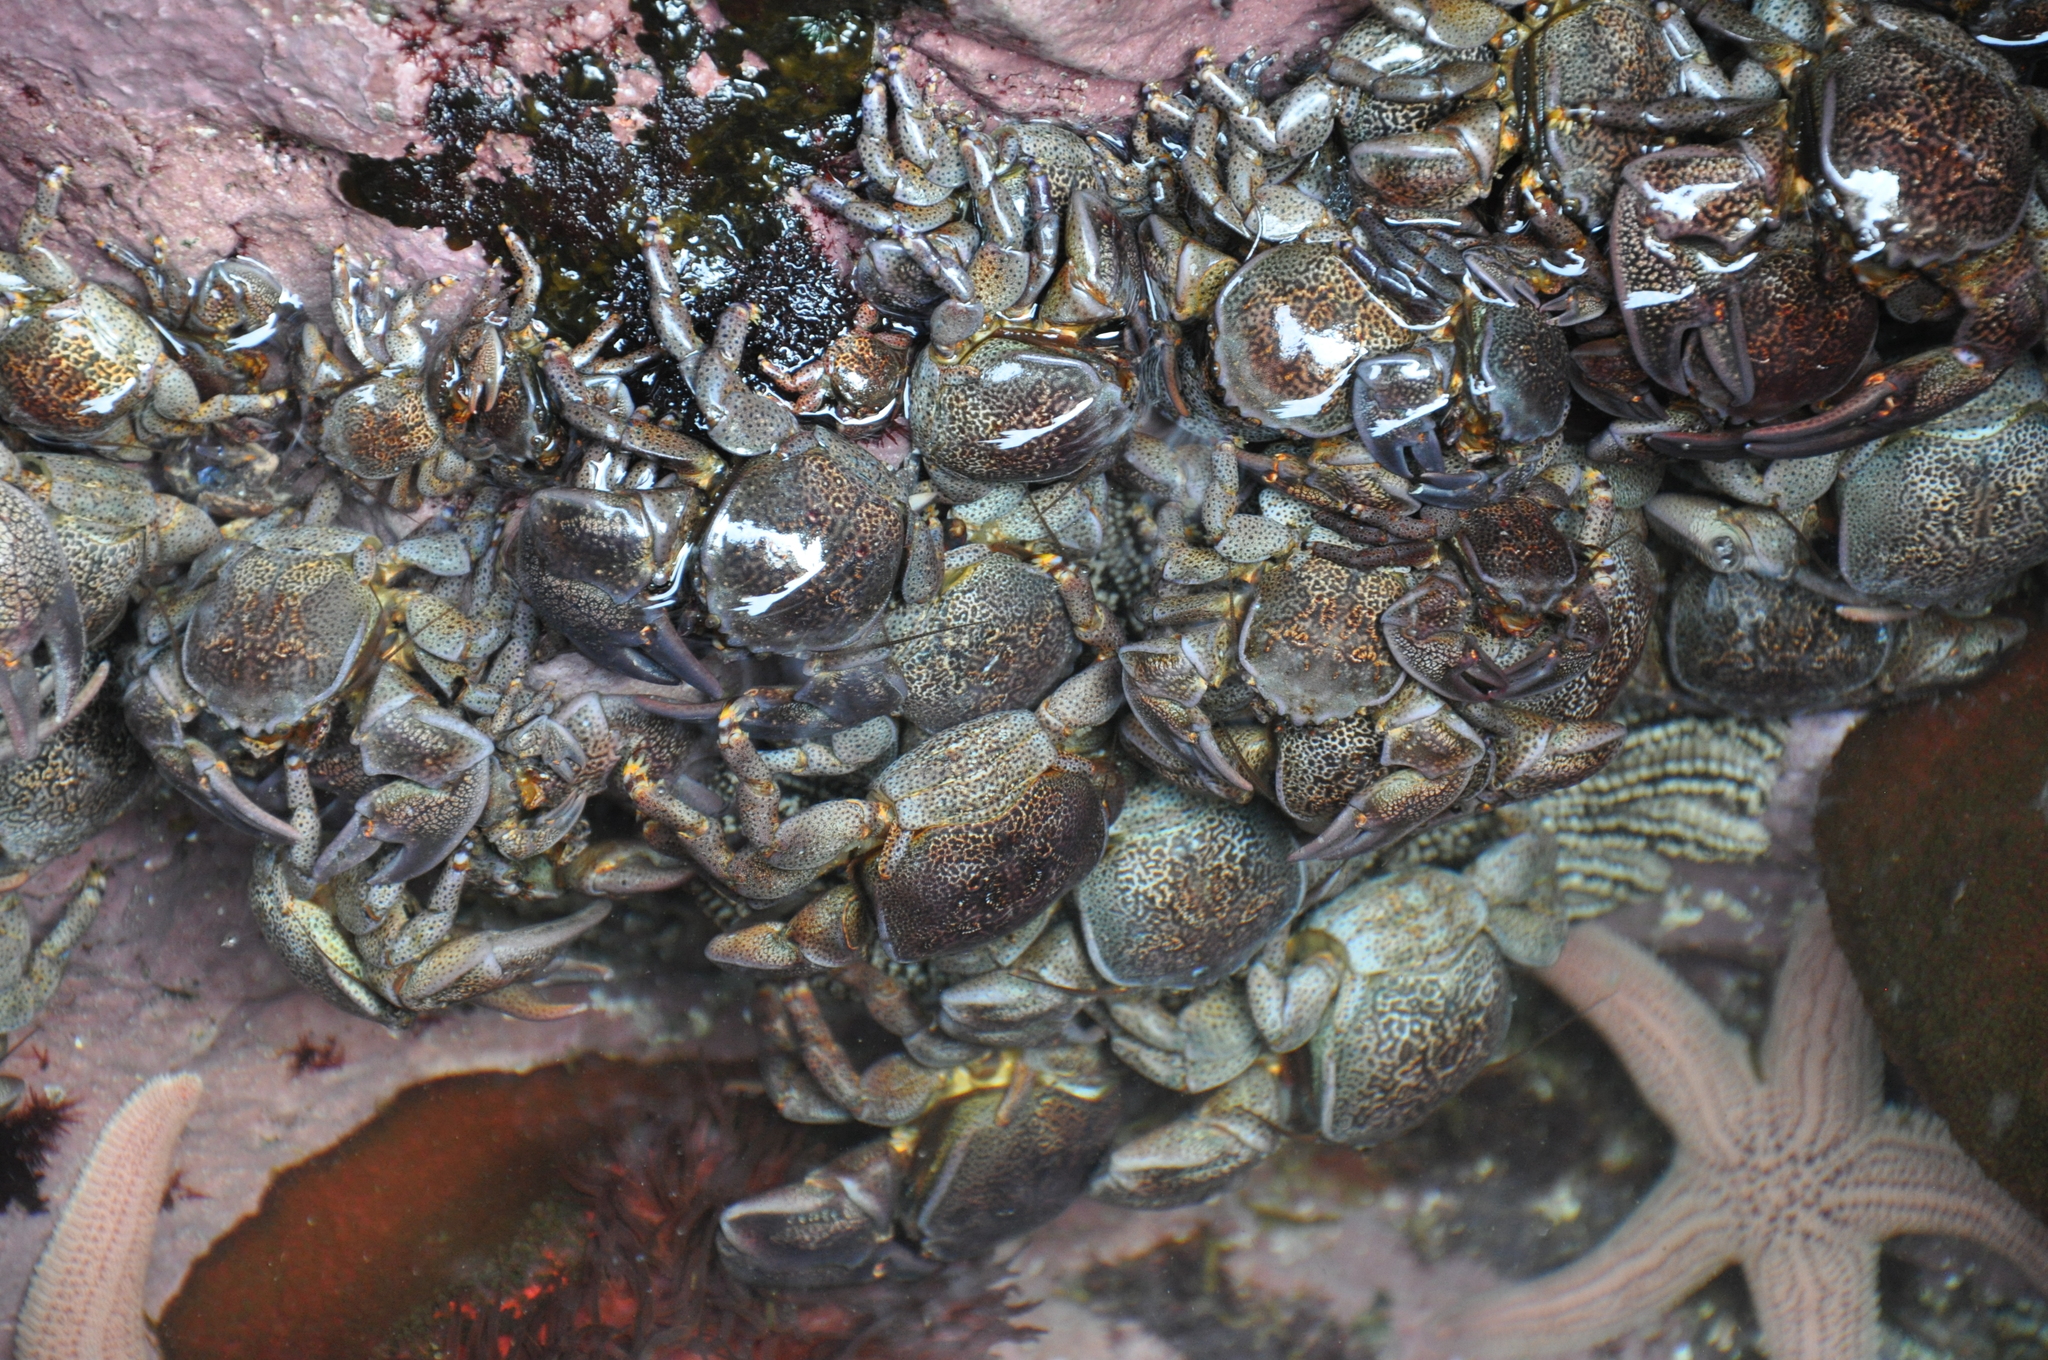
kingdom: Animalia
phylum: Arthropoda
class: Malacostraca
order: Decapoda
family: Porcellanidae
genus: Petrolisthes
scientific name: Petrolisthes punctatus
